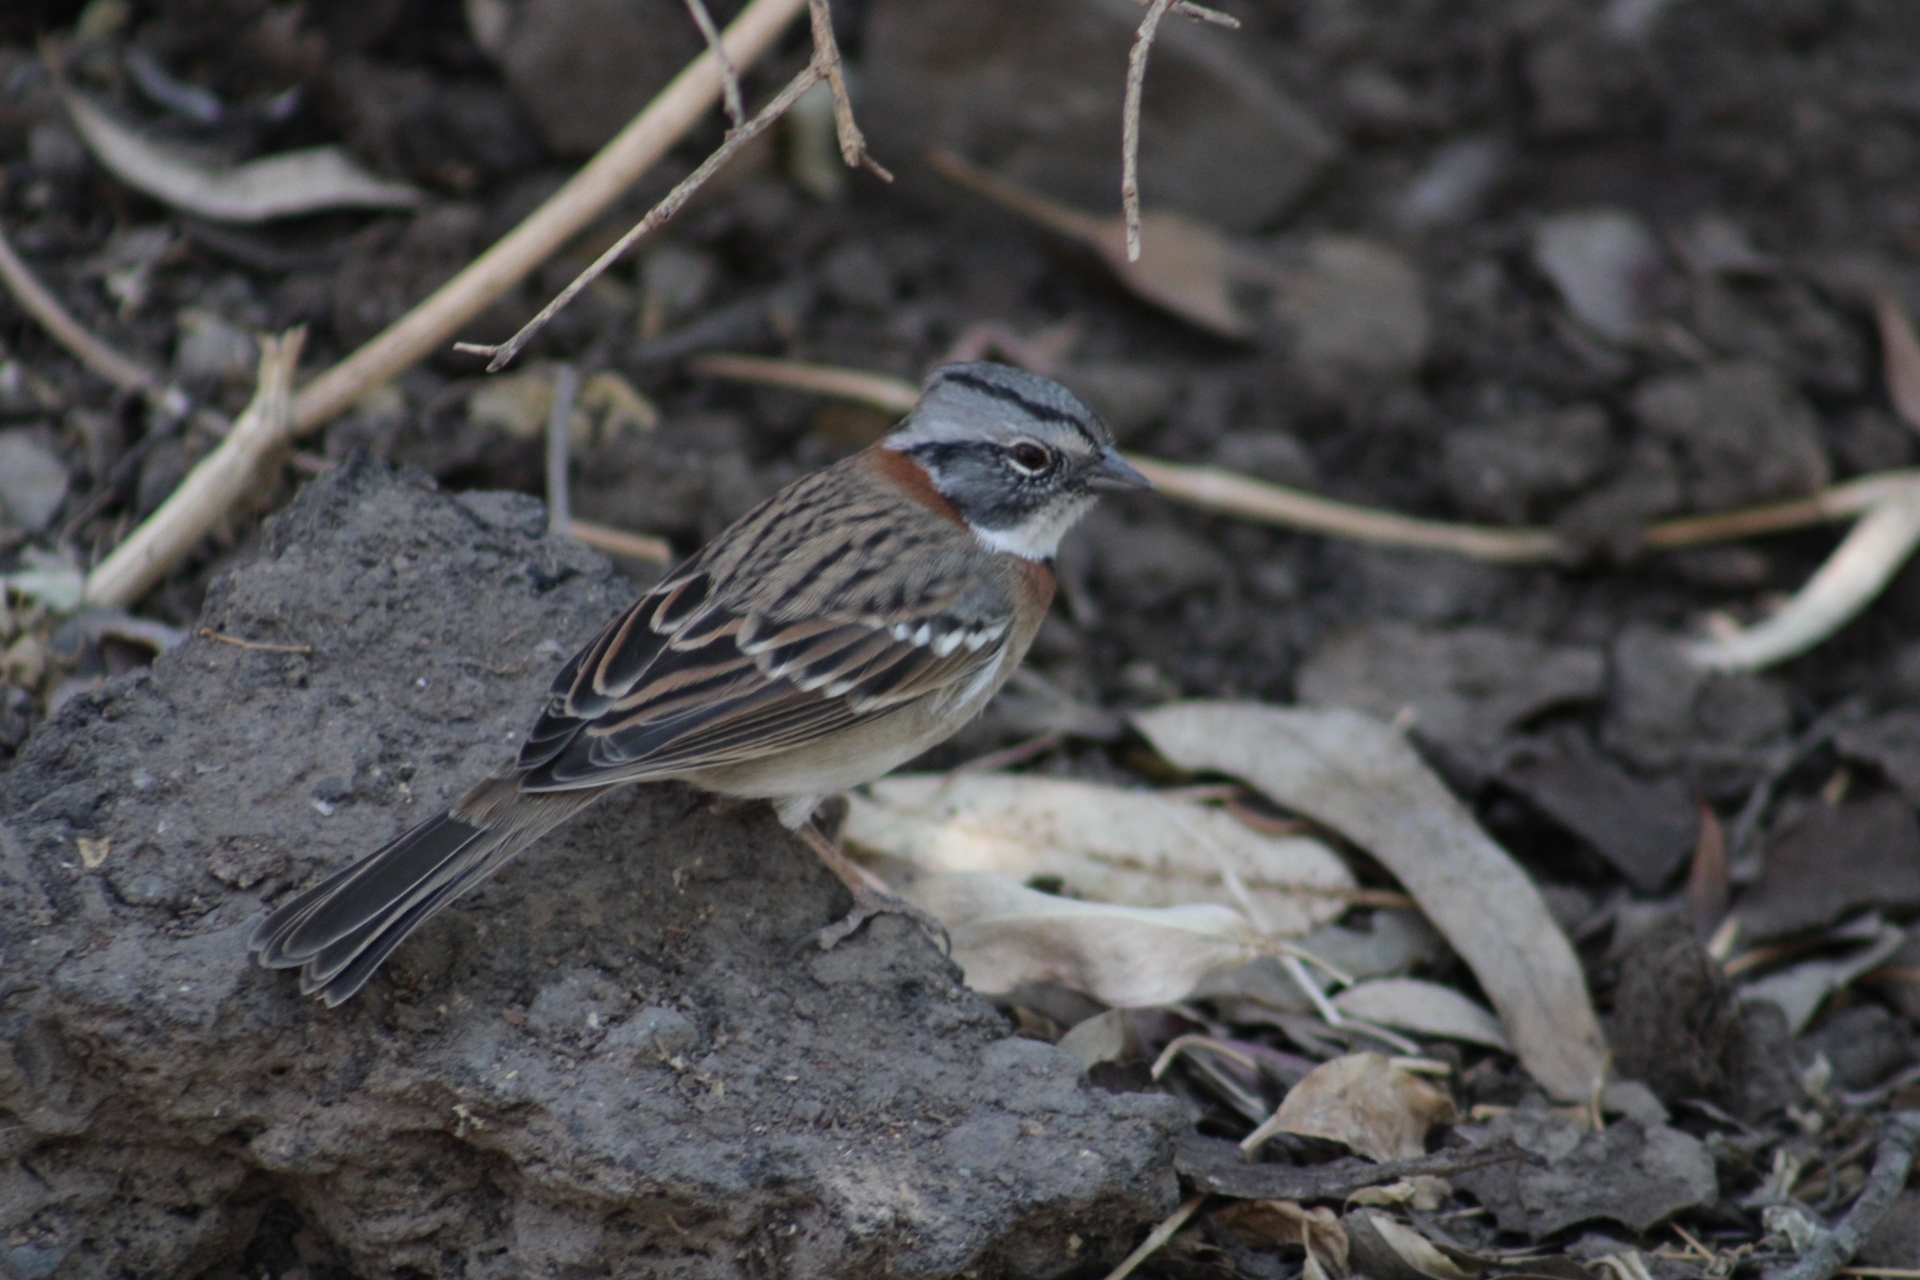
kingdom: Animalia
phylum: Chordata
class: Aves
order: Passeriformes
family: Passerellidae
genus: Zonotrichia
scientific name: Zonotrichia capensis
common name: Rufous-collared sparrow
